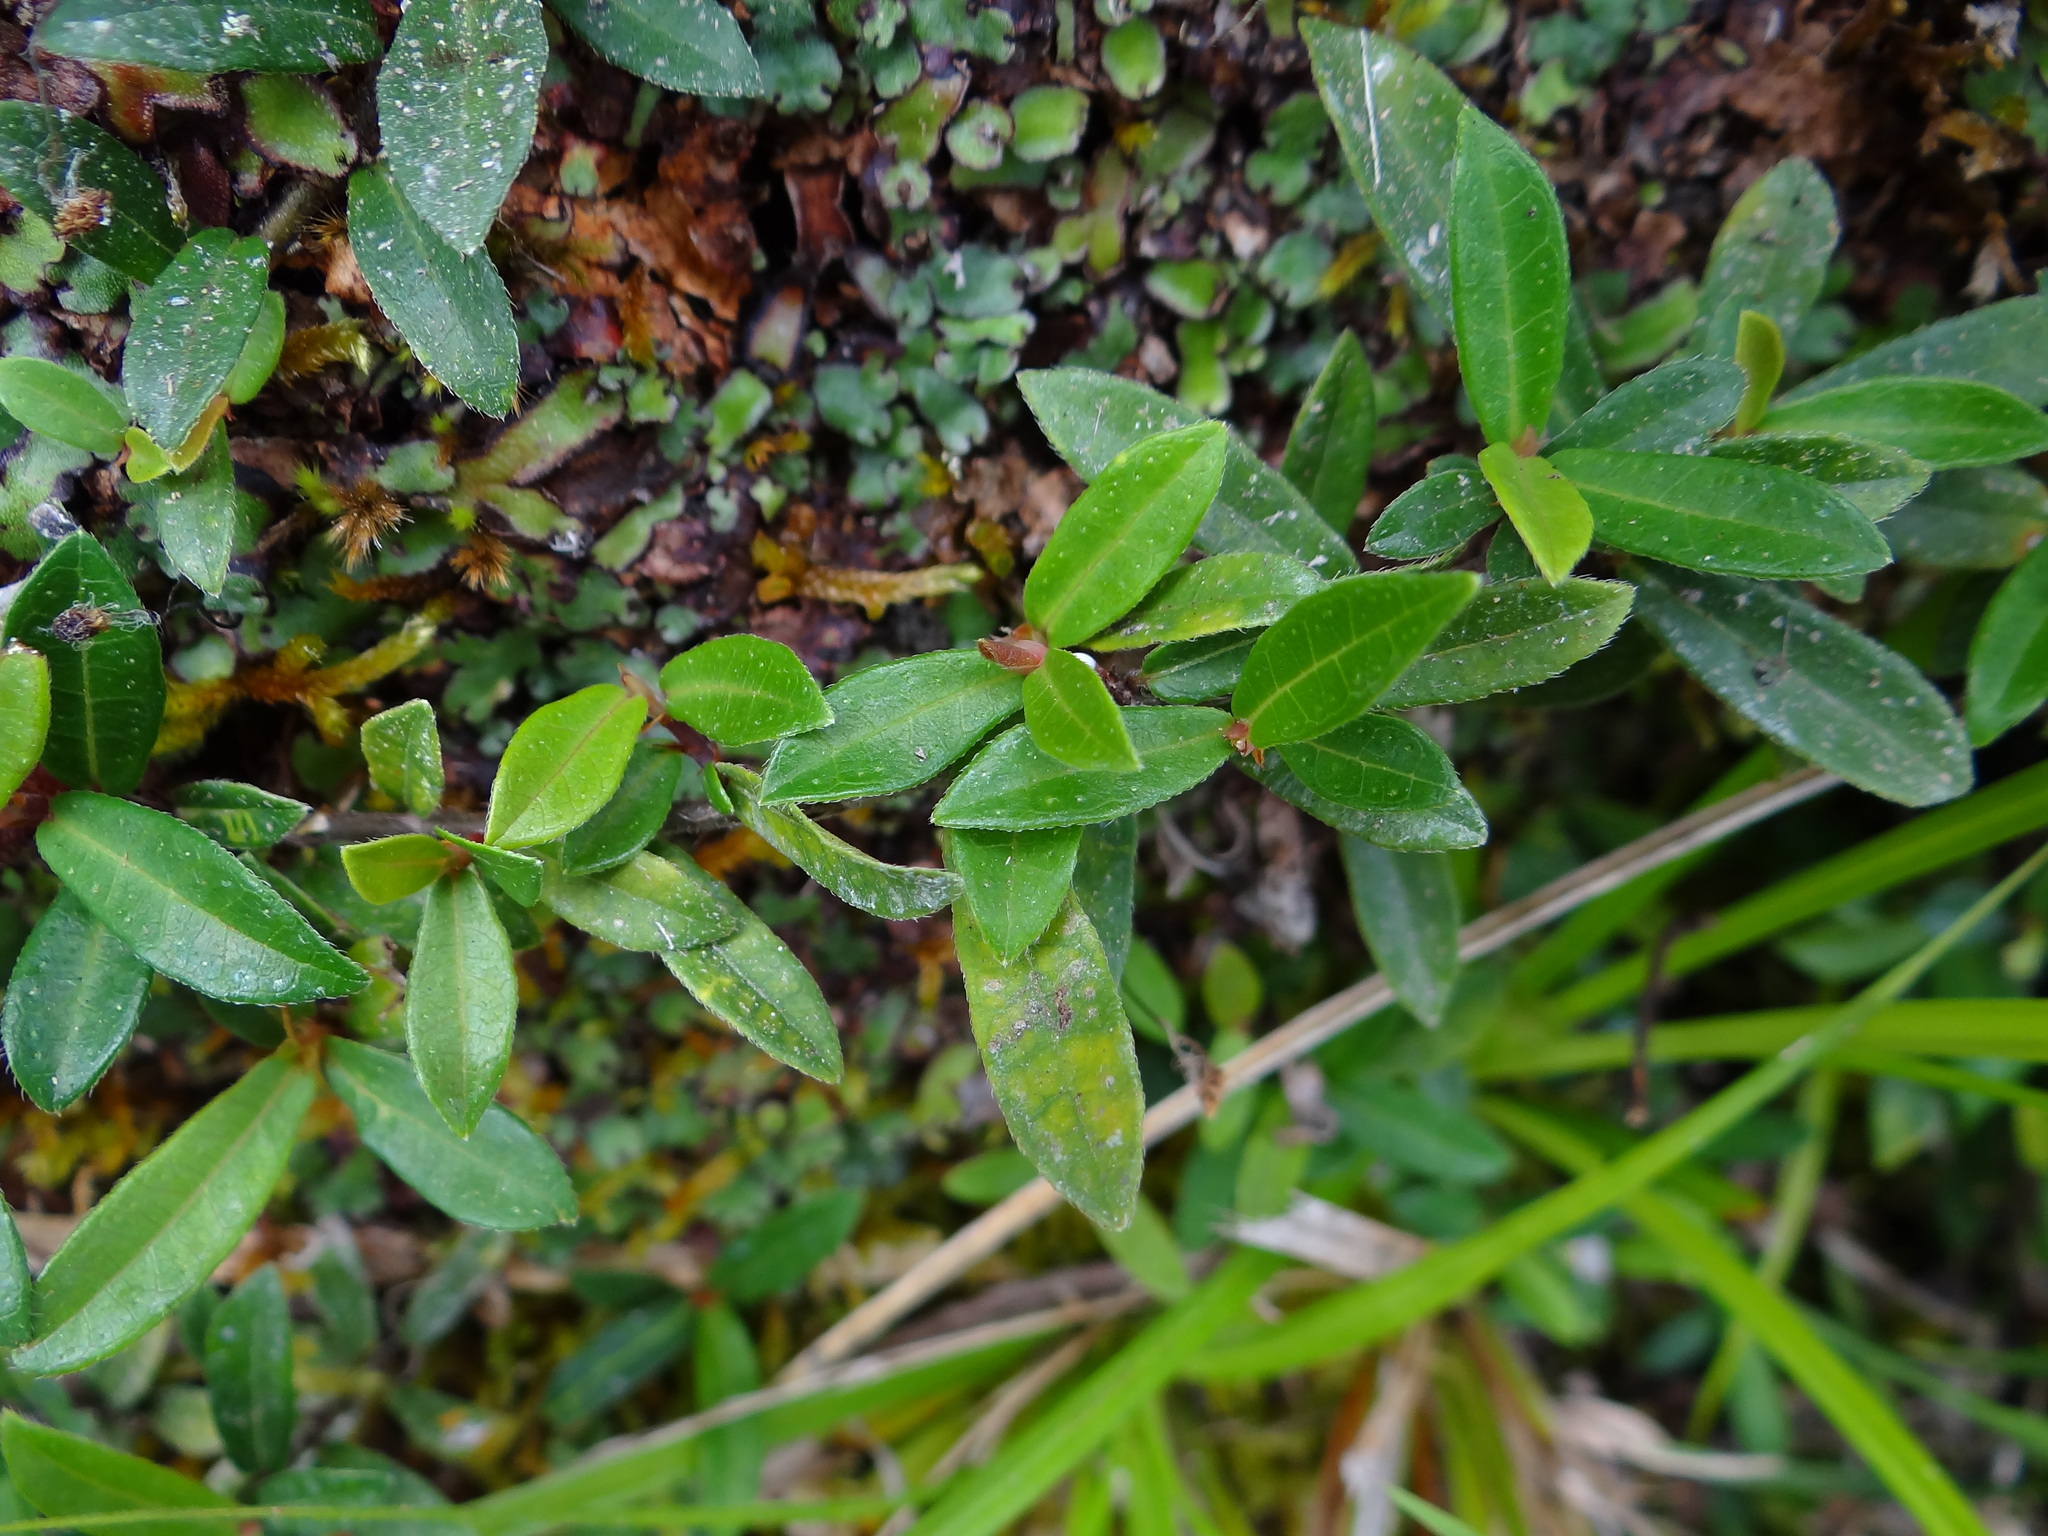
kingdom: Plantae
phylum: Tracheophyta
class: Magnoliopsida
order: Rosales
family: Moraceae
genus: Ficus
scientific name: Ficus vaccinioides
